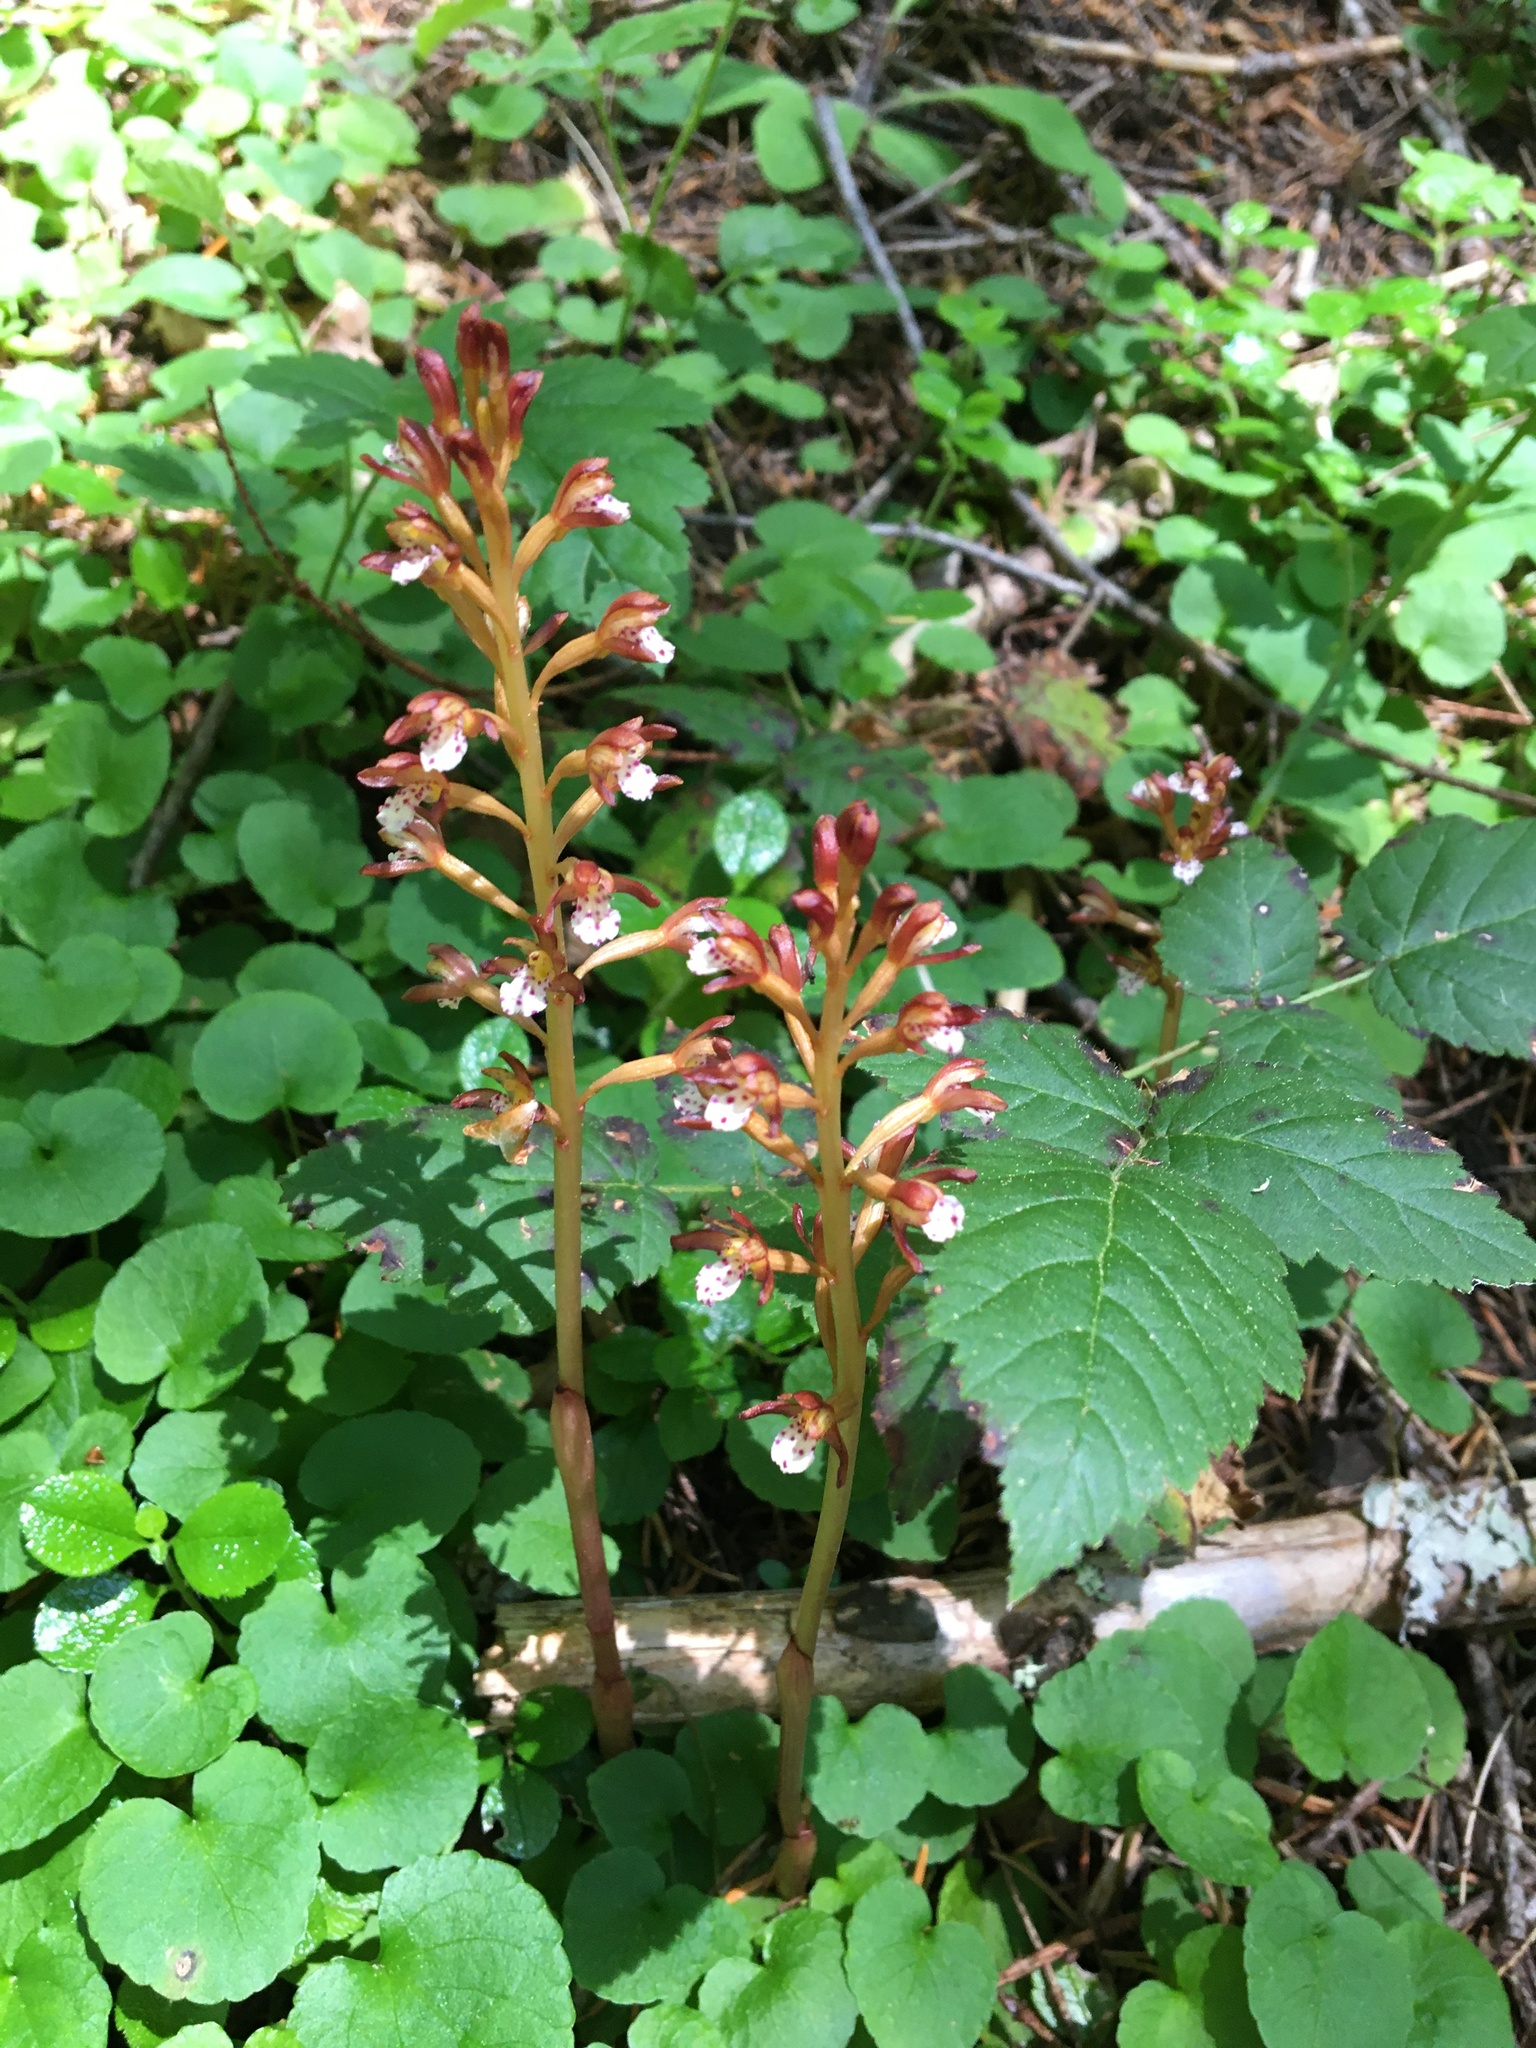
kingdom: Plantae
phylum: Tracheophyta
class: Liliopsida
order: Asparagales
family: Orchidaceae
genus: Corallorhiza
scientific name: Corallorhiza maculata
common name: Spotted coralroot
